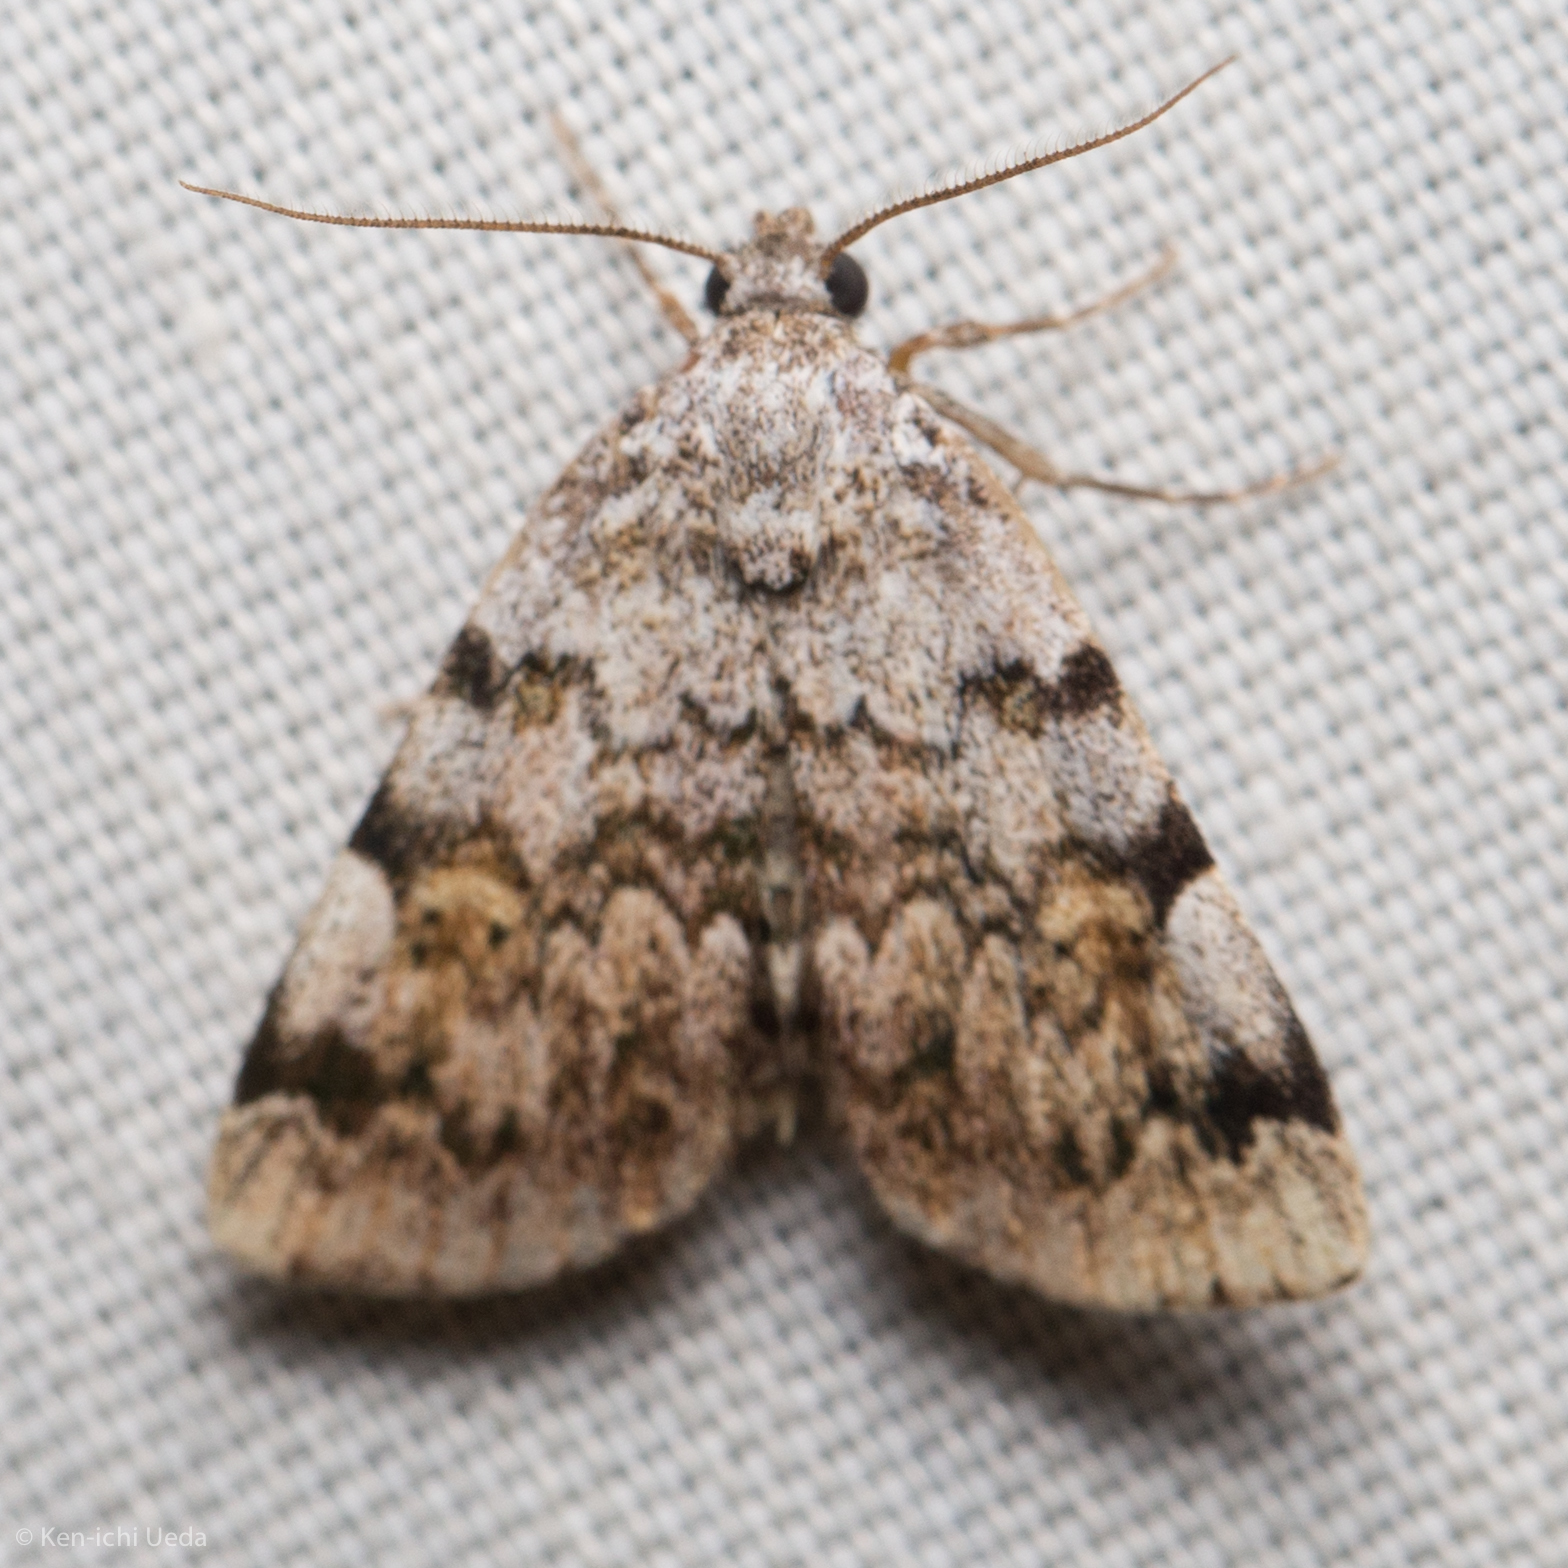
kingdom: Animalia
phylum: Arthropoda
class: Insecta
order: Lepidoptera
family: Erebidae
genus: Idia
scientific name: Idia americalis
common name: American idia moth
